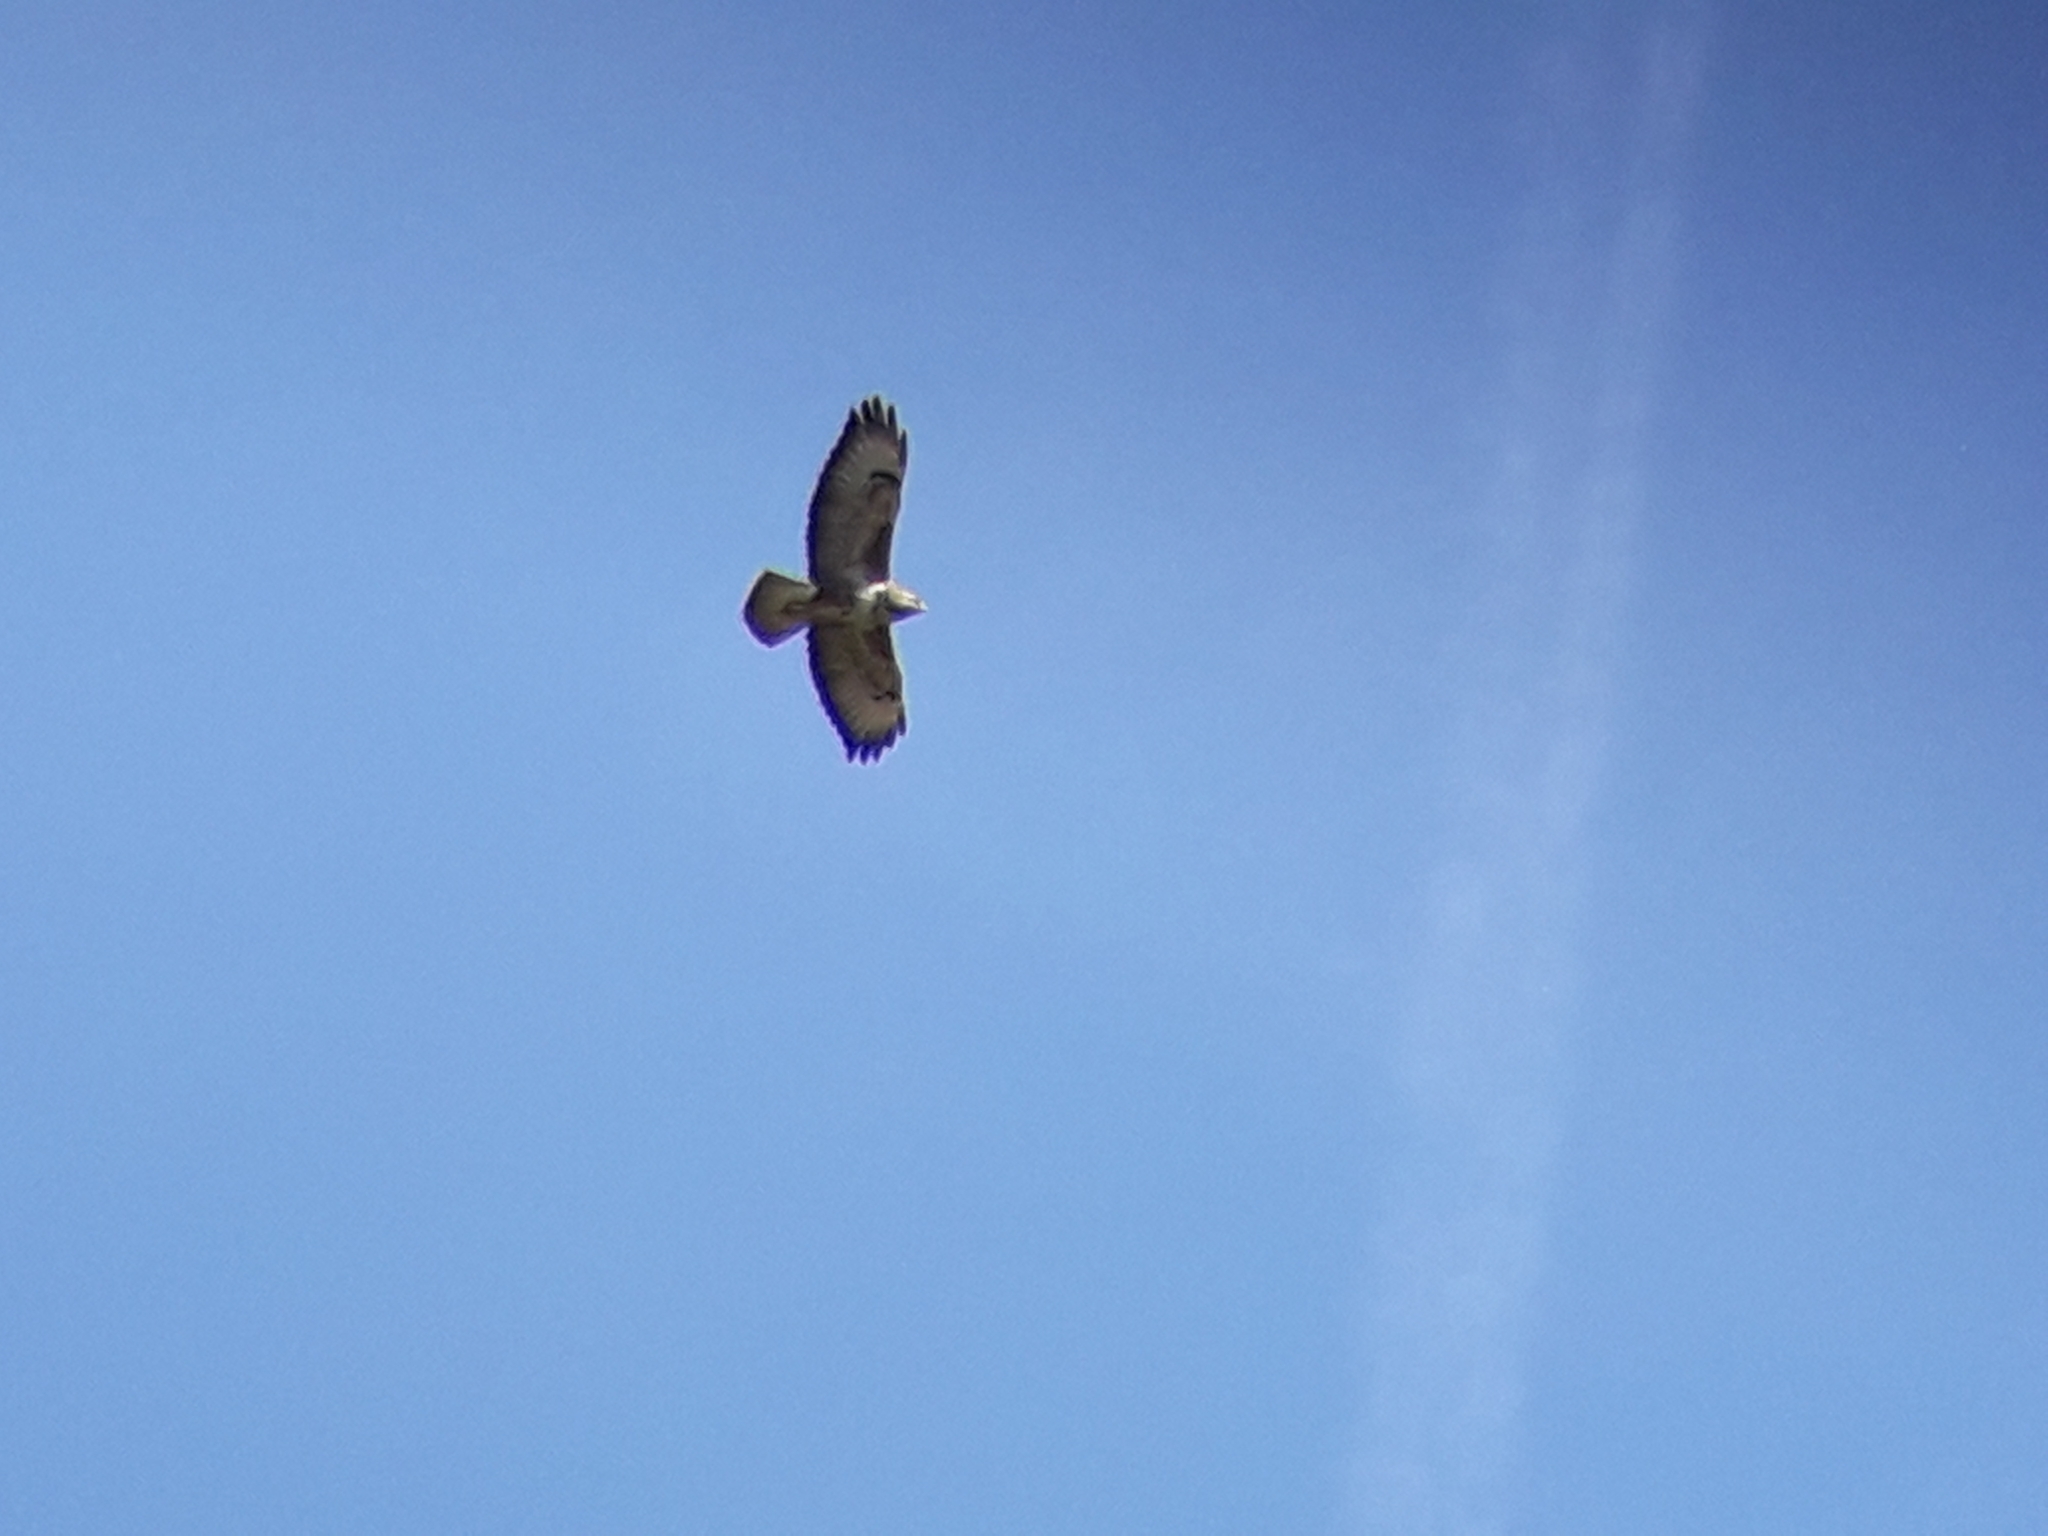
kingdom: Animalia
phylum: Chordata
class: Aves
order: Accipitriformes
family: Accipitridae
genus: Buteo
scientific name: Buteo buteo
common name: Common buzzard
